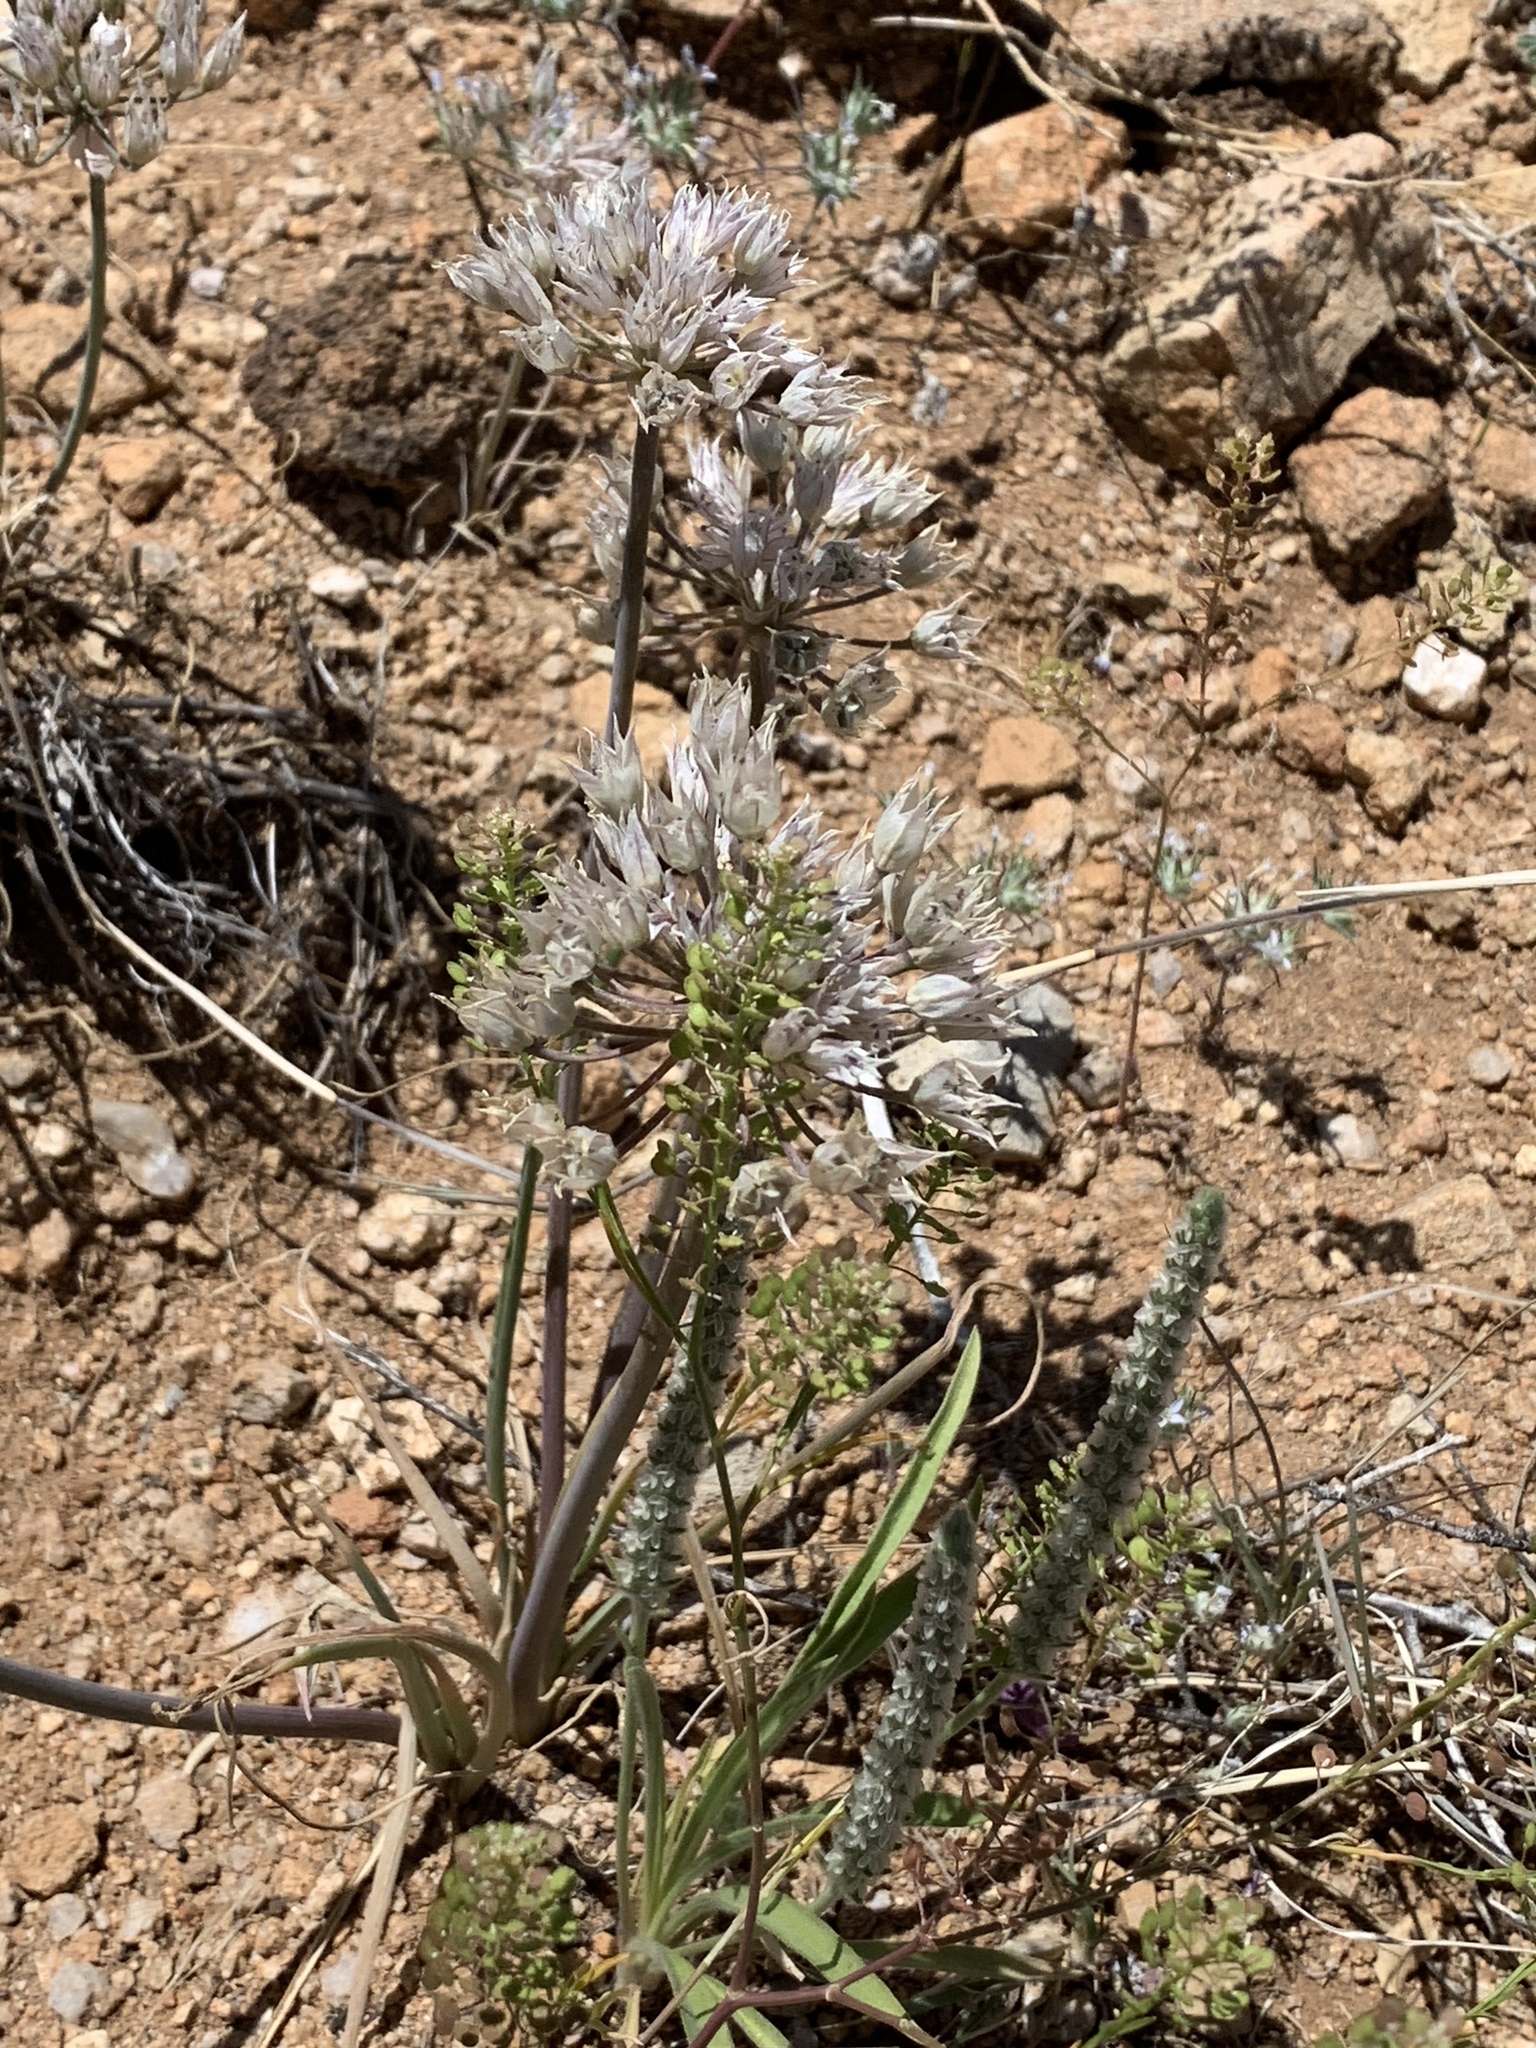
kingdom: Plantae
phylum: Tracheophyta
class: Liliopsida
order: Asparagales
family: Amaryllidaceae
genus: Allium
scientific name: Allium macropetalum
